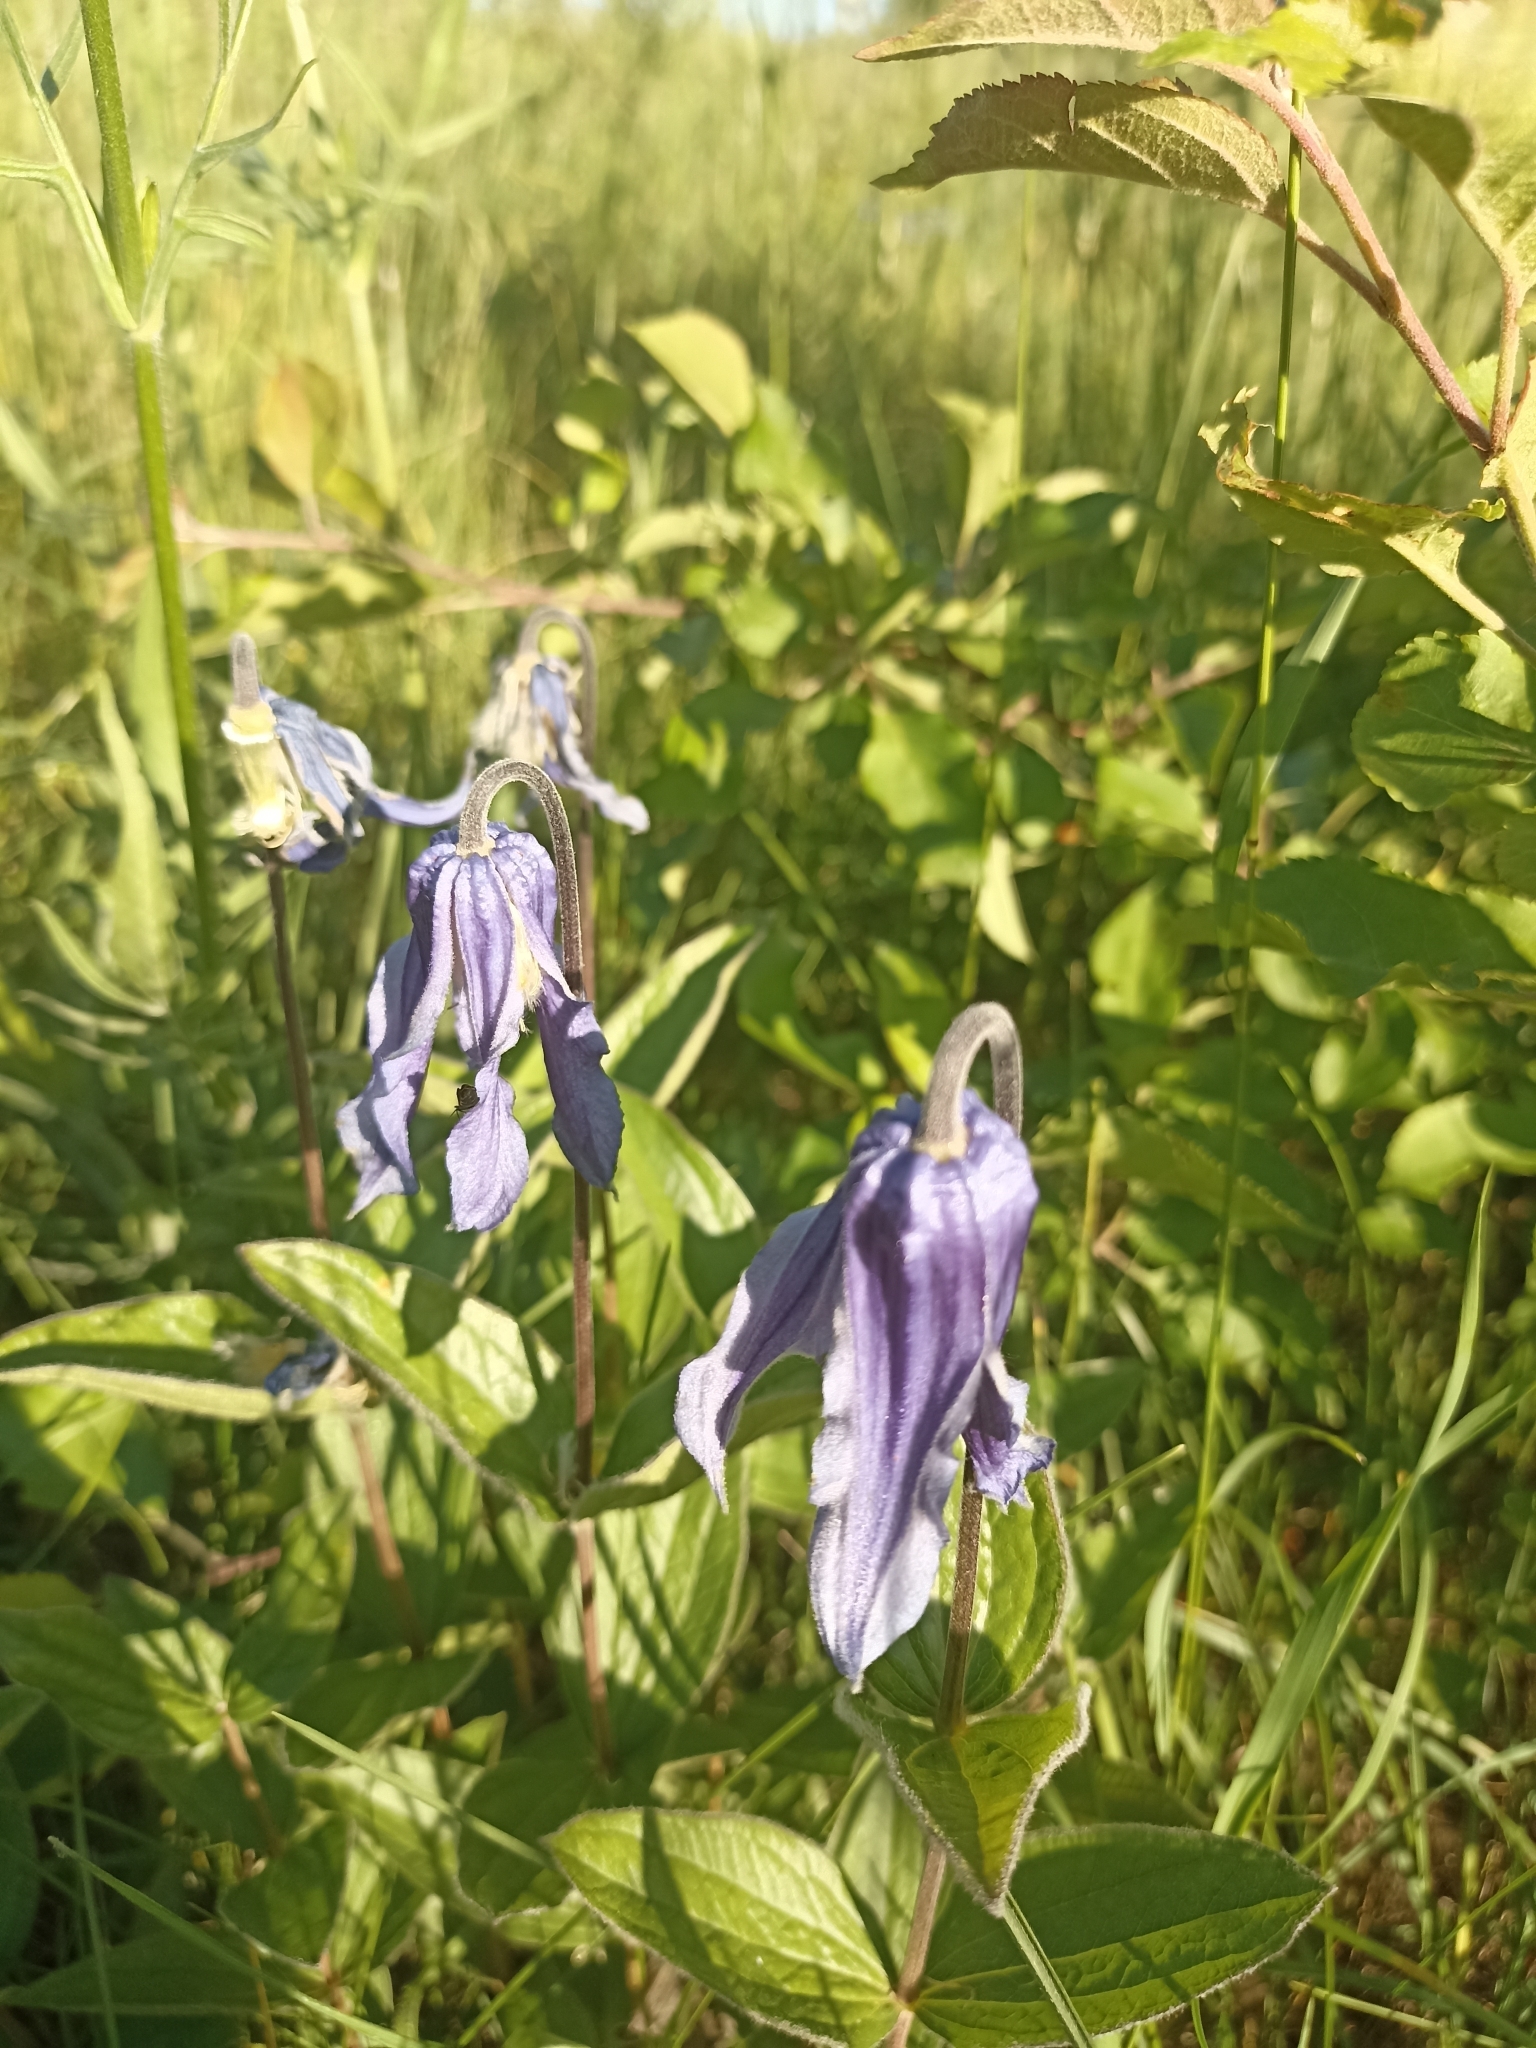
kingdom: Plantae
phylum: Tracheophyta
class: Magnoliopsida
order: Ranunculales
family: Ranunculaceae
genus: Clematis
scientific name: Clematis integrifolia
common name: Solitary clematis
